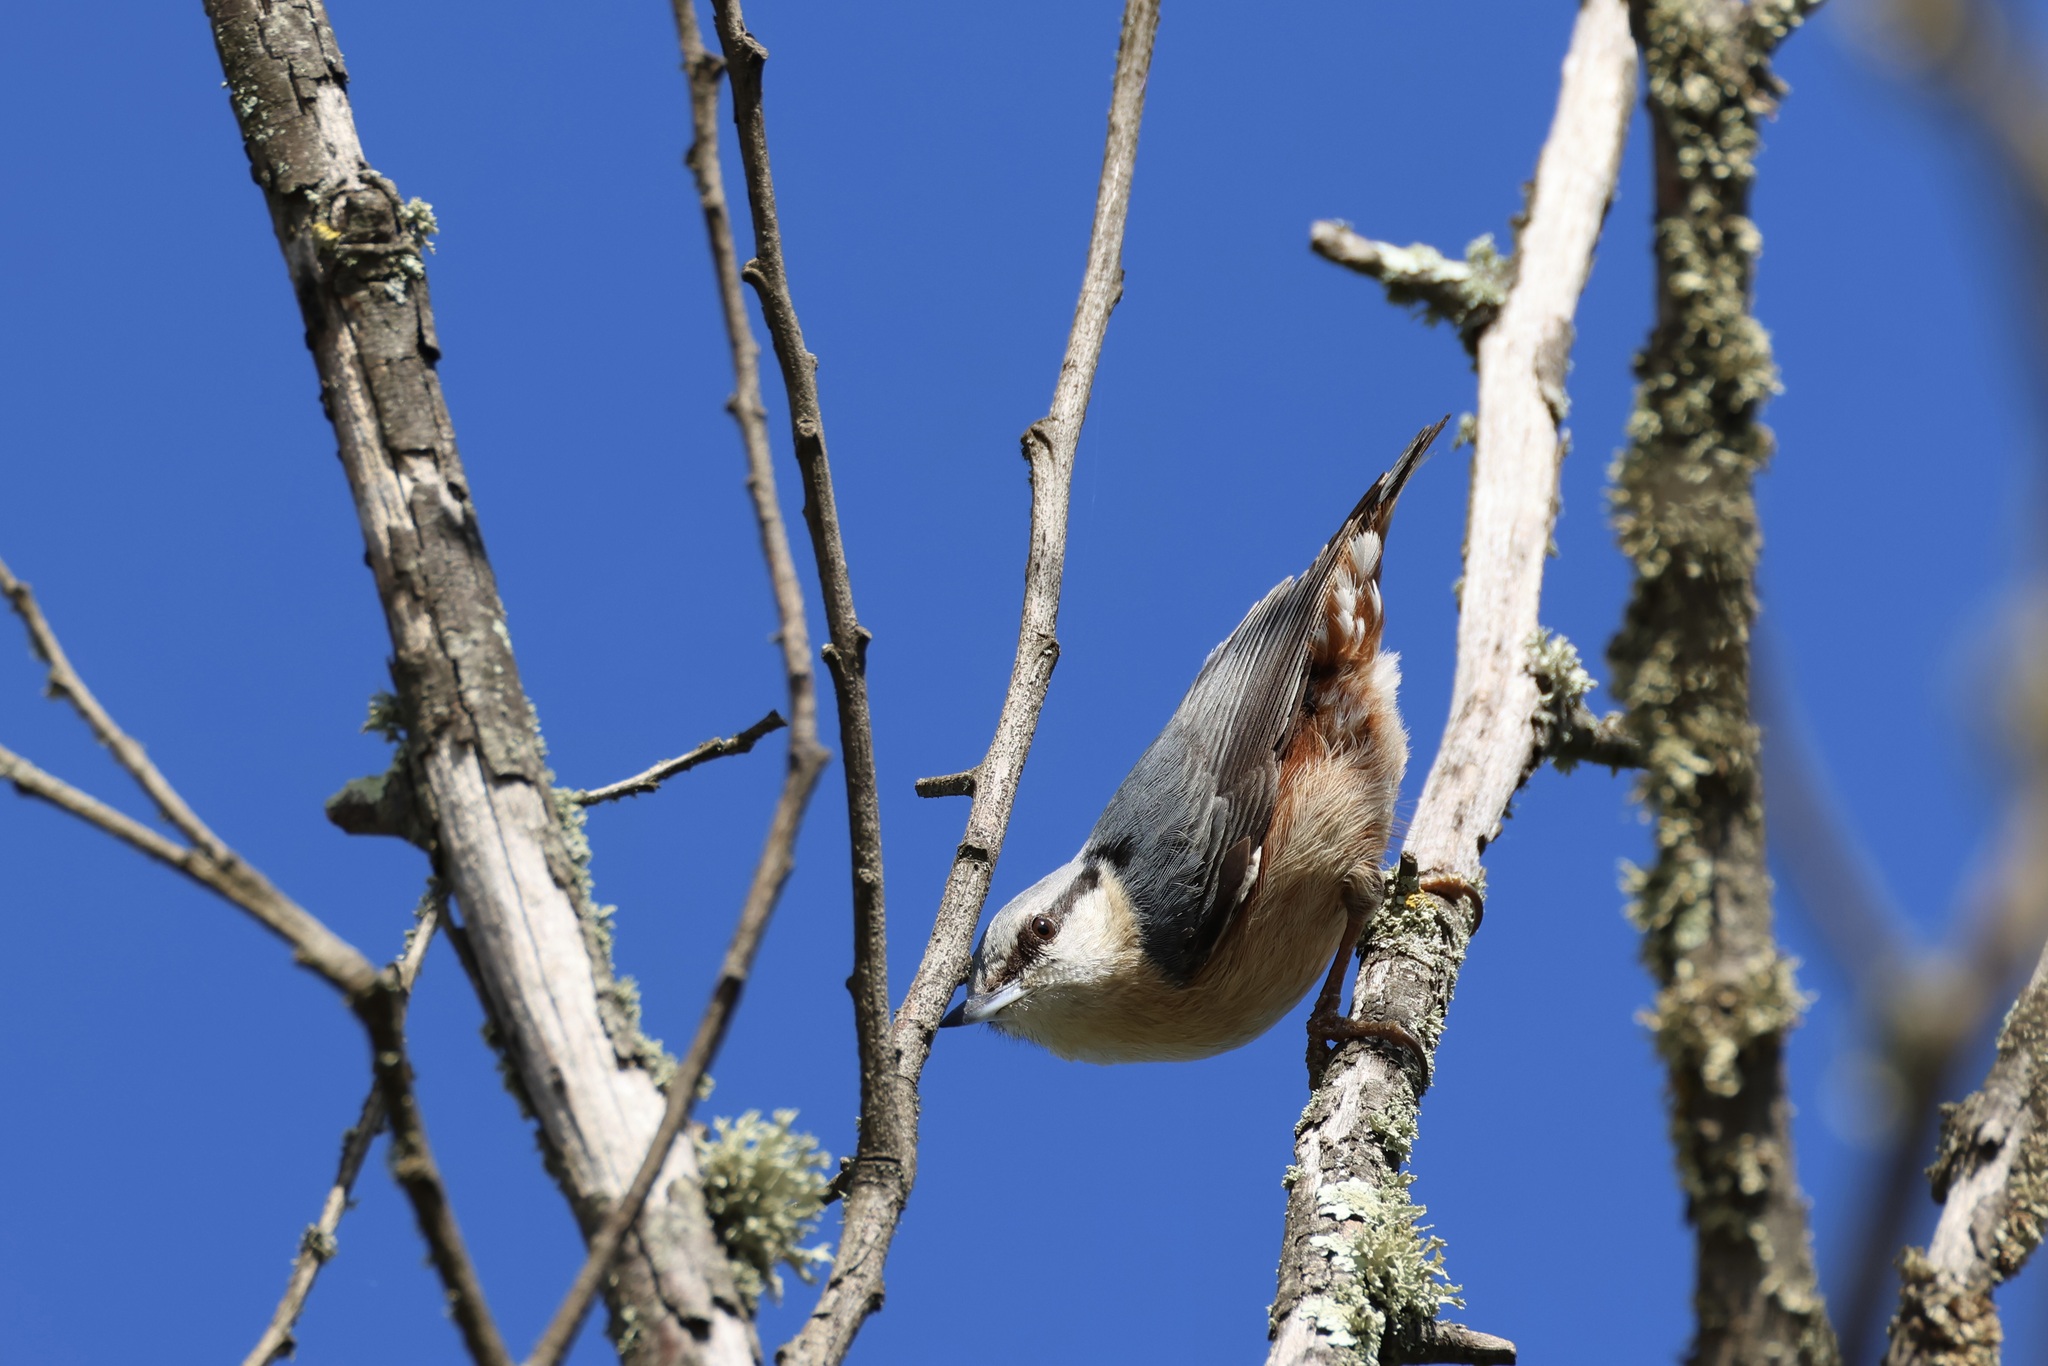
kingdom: Animalia
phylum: Chordata
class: Aves
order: Passeriformes
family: Sittidae
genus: Sitta
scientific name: Sitta europaea
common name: Eurasian nuthatch
